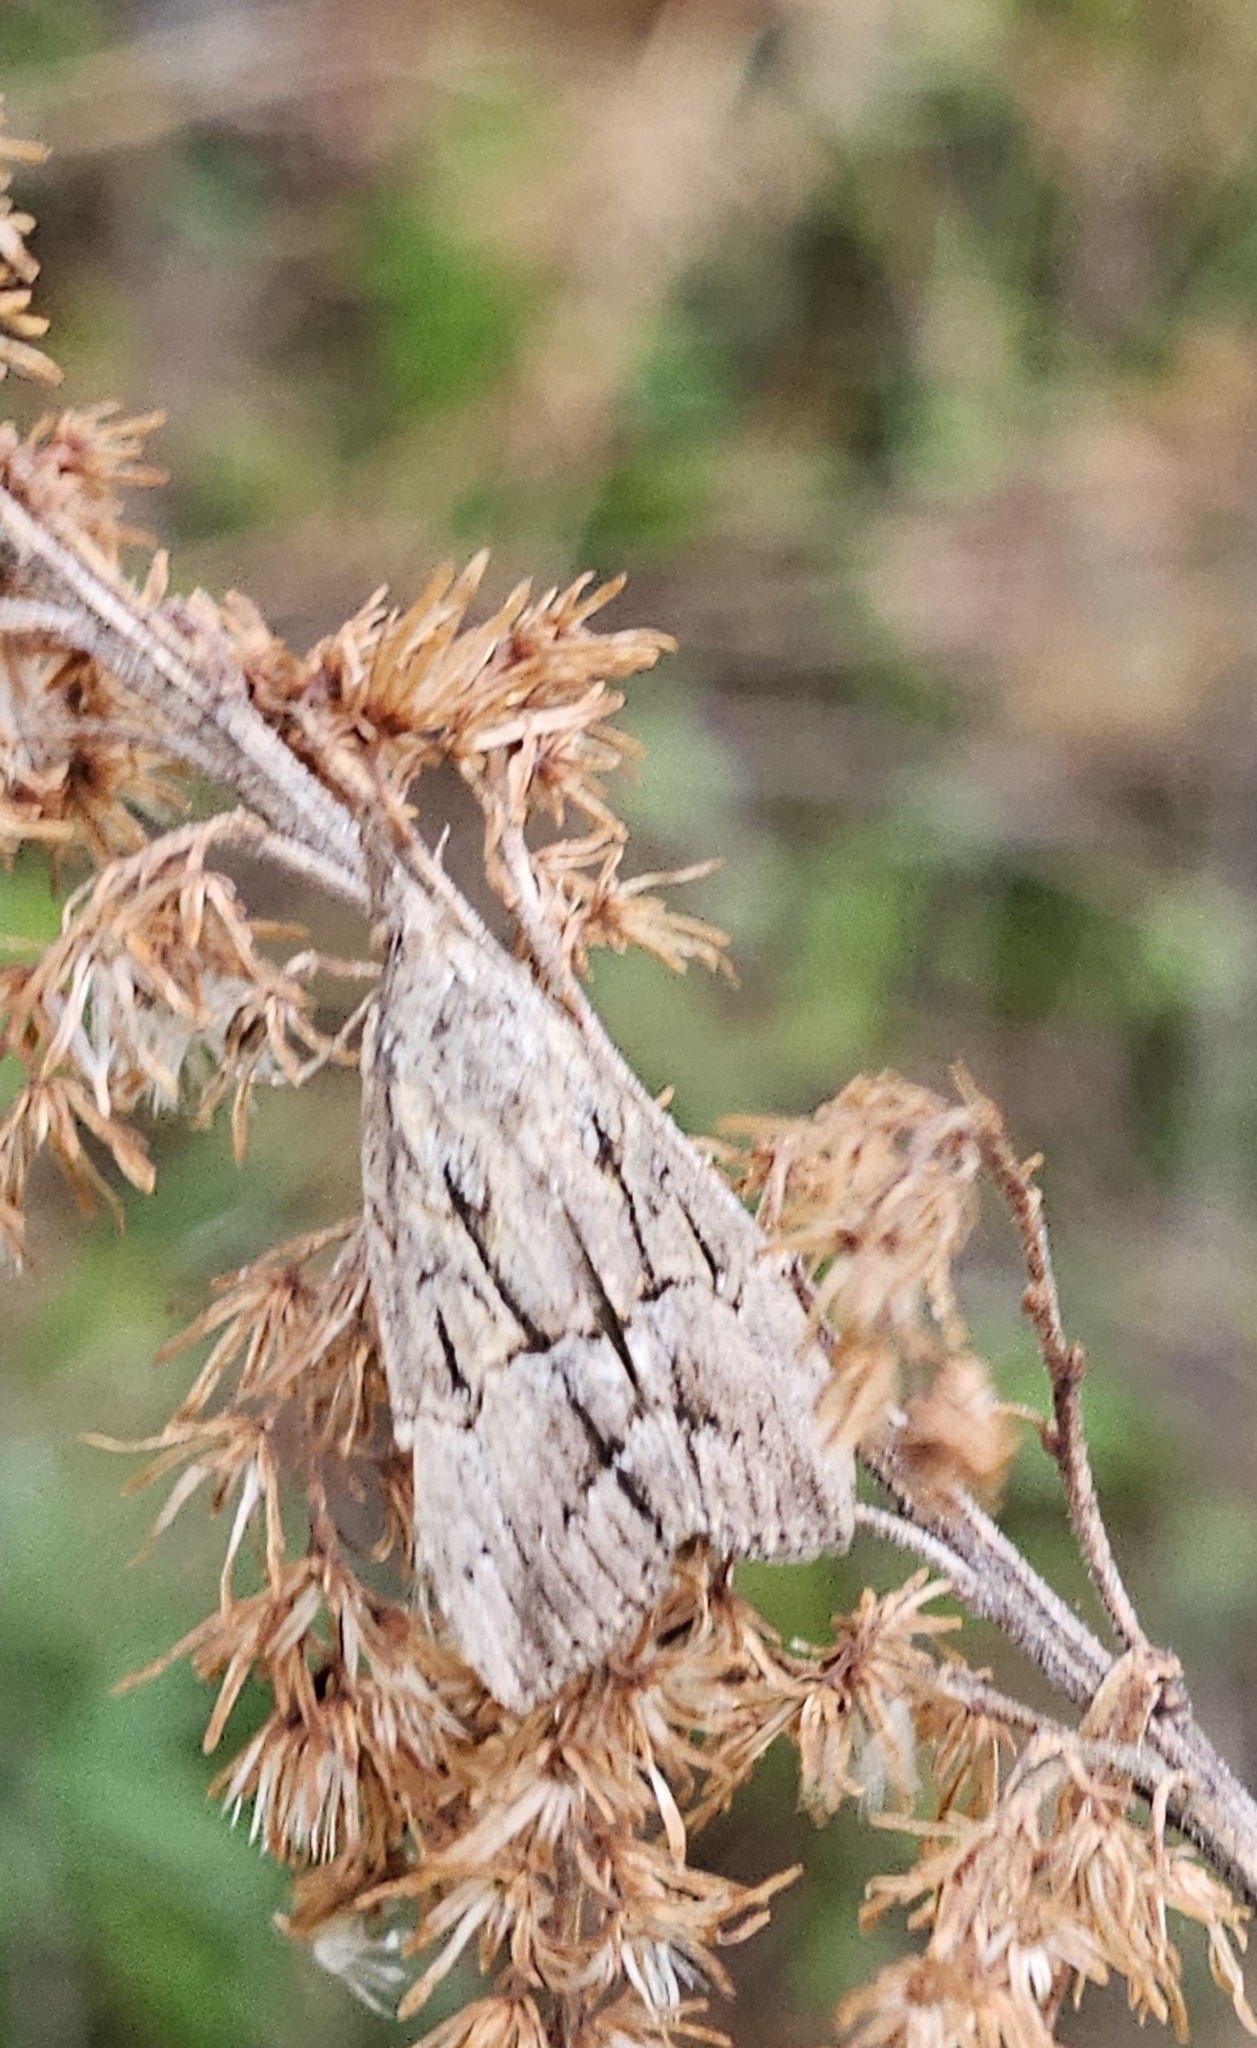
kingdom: Animalia
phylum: Arthropoda
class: Insecta
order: Lepidoptera
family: Erebidae
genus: Cutina
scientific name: Cutina albopunctella
